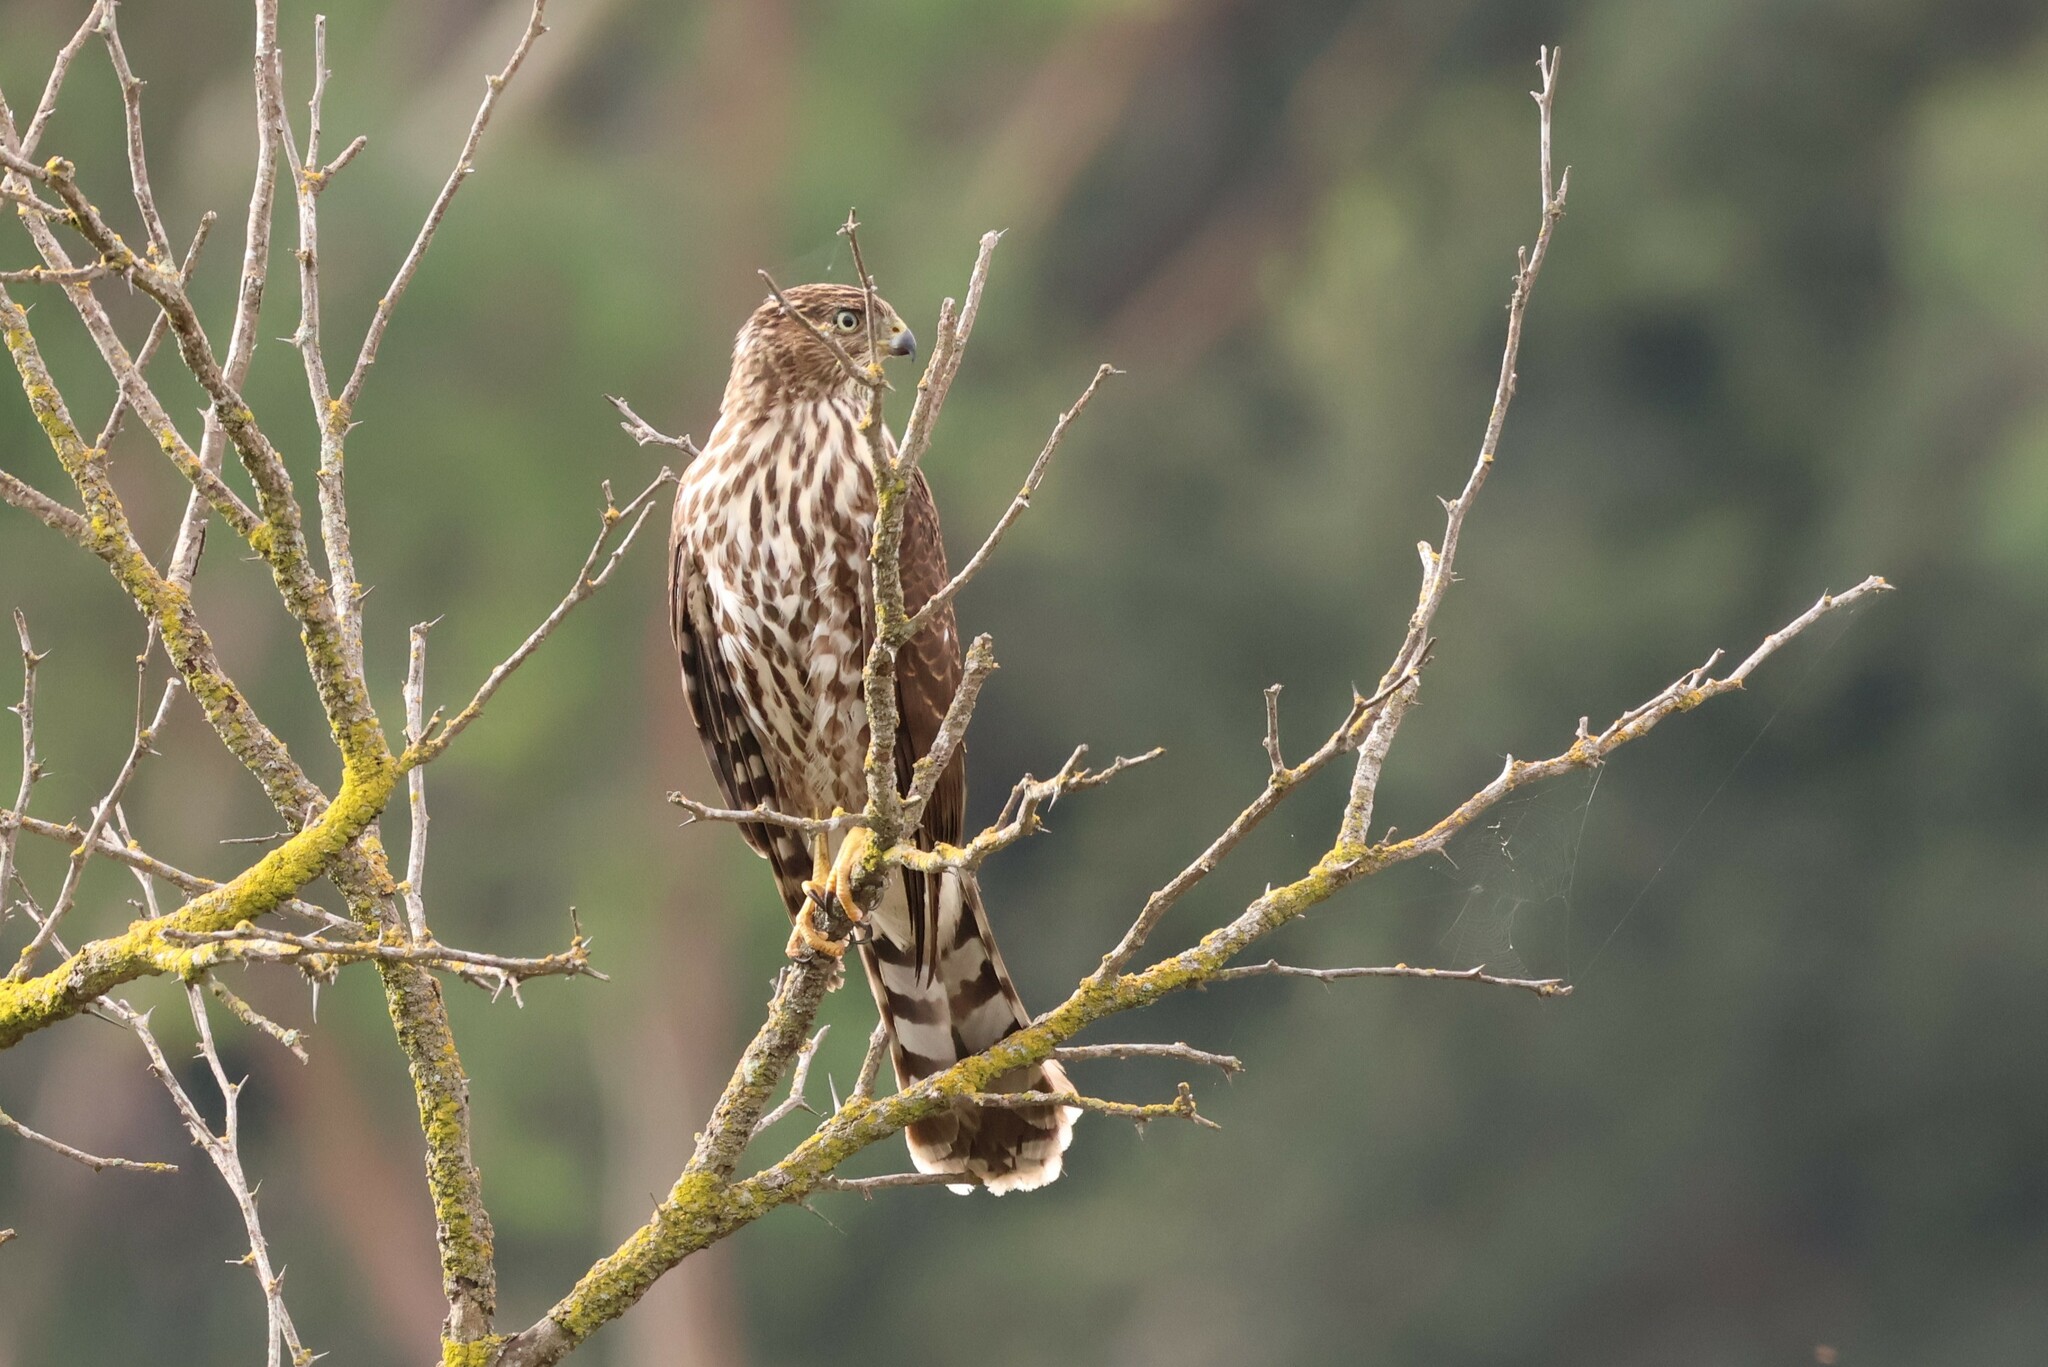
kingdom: Animalia
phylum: Chordata
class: Aves
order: Accipitriformes
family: Accipitridae
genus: Accipiter
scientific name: Accipiter cooperii
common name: Cooper's hawk
